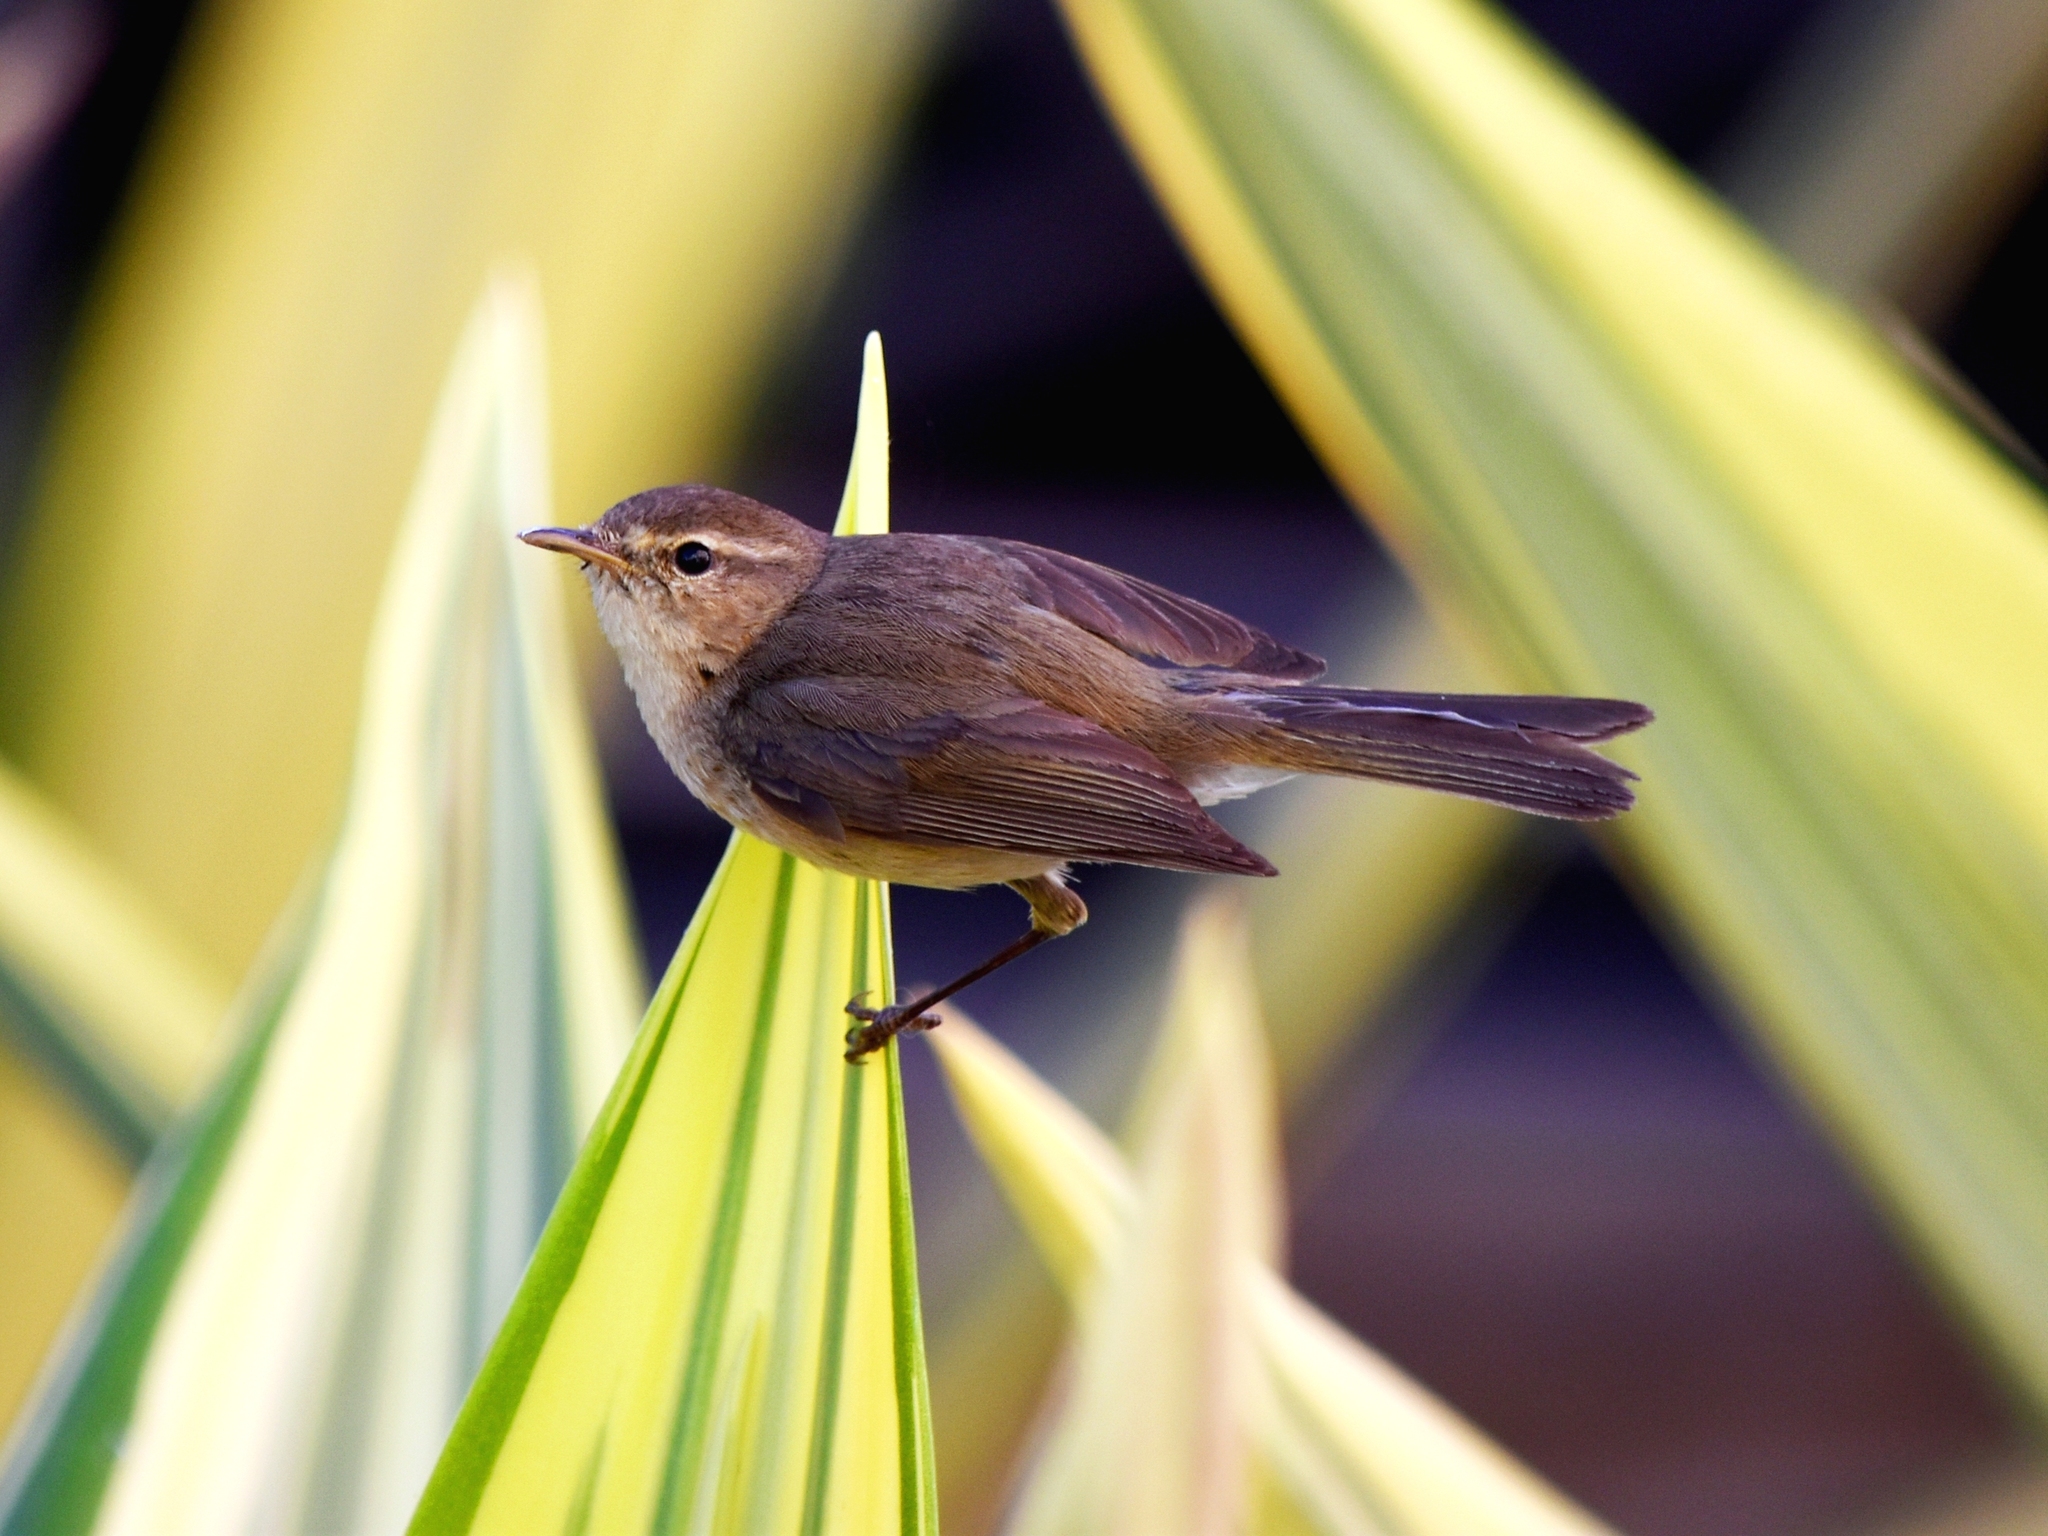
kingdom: Animalia
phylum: Chordata
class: Aves
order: Passeriformes
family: Phylloscopidae
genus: Phylloscopus
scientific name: Phylloscopus canariensis
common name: Canary islands chiffchaff
